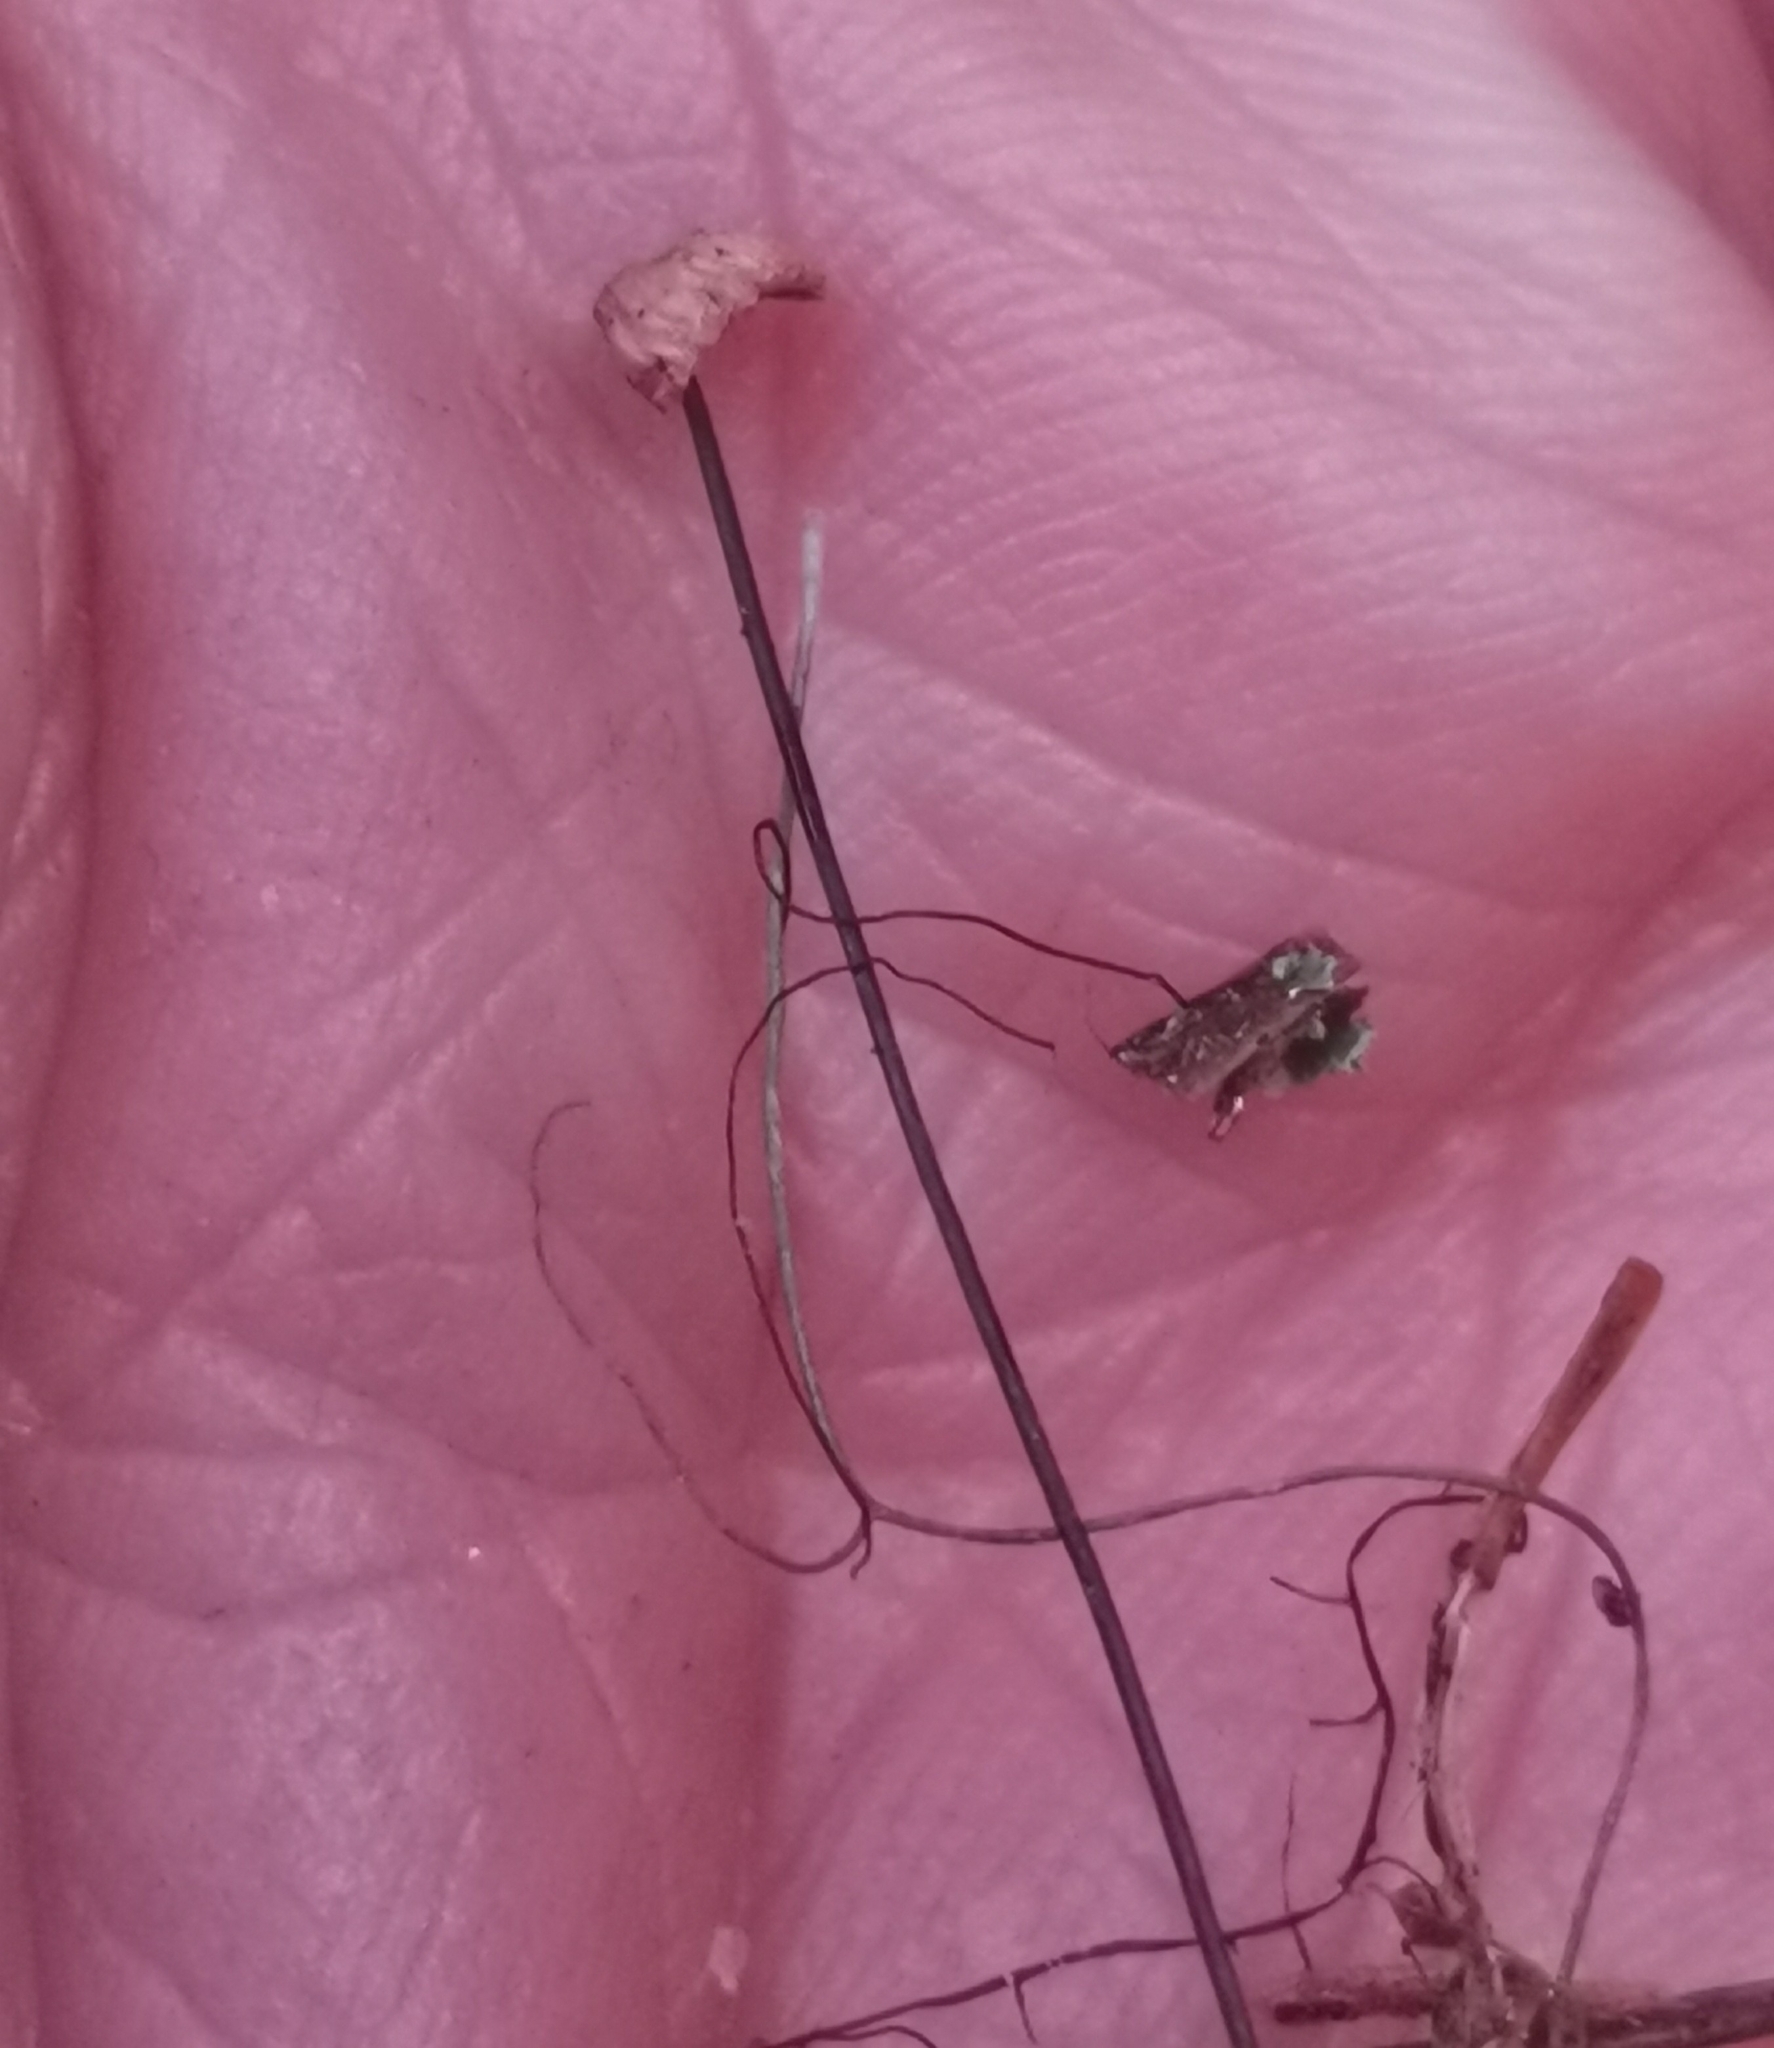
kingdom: Fungi
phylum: Basidiomycota
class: Agaricomycetes
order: Agaricales
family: Omphalotaceae
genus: Gymnopus
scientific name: Gymnopus androsaceus
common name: Horse-hair fungus
